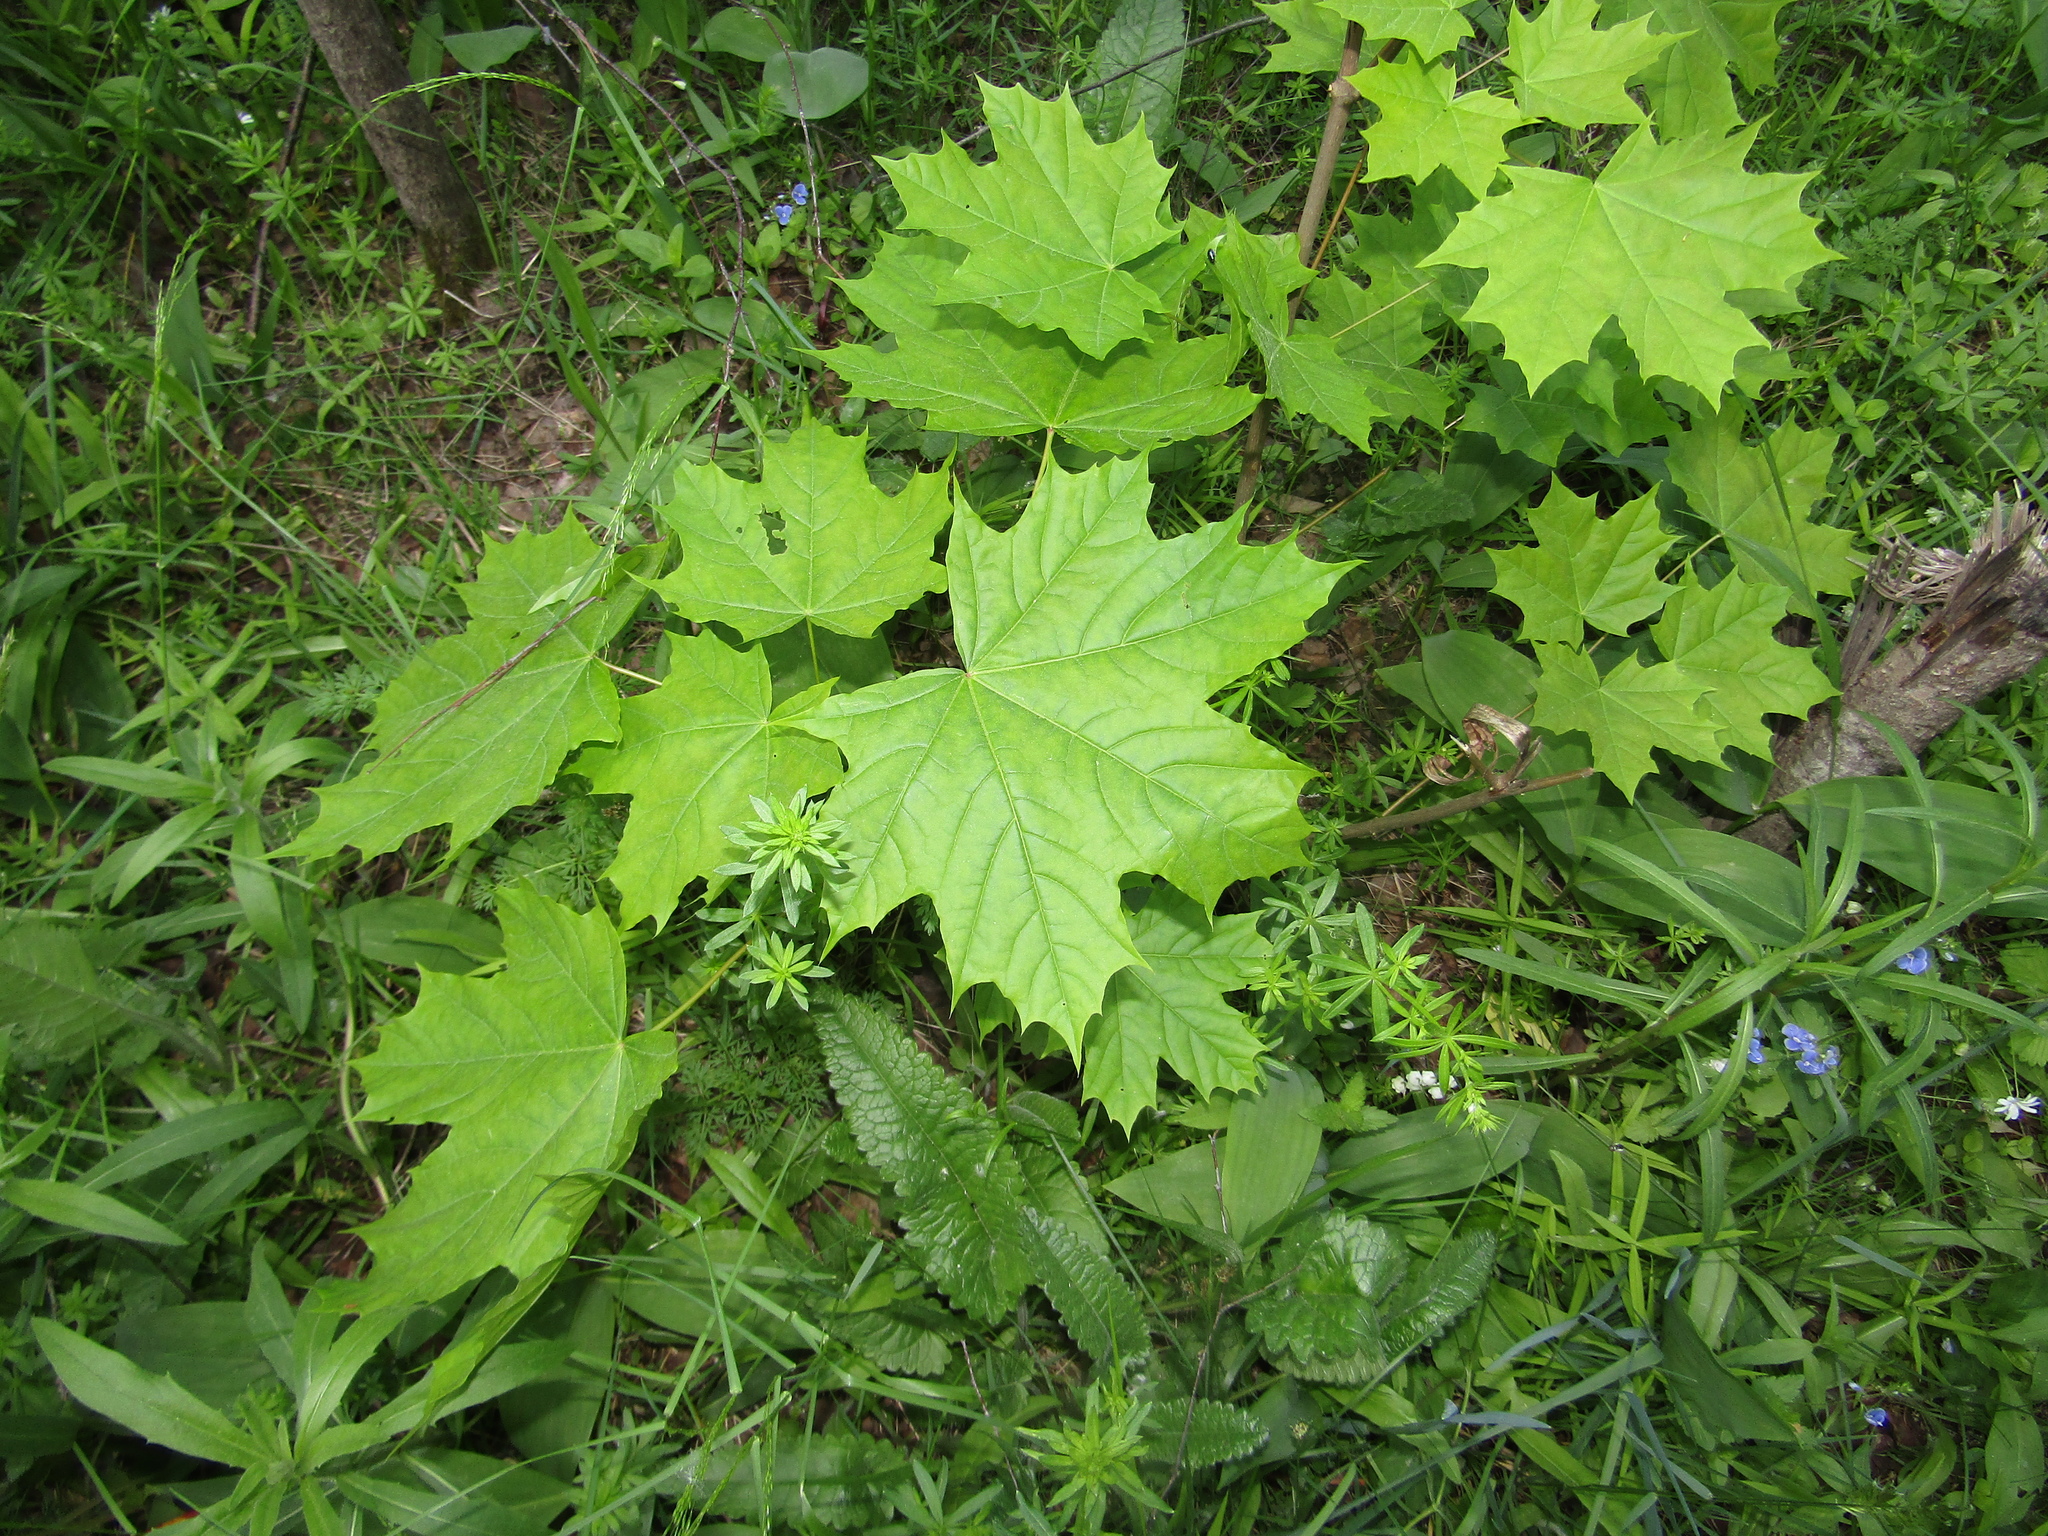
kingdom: Plantae
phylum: Tracheophyta
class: Magnoliopsida
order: Sapindales
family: Sapindaceae
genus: Acer
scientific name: Acer platanoides
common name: Norway maple
